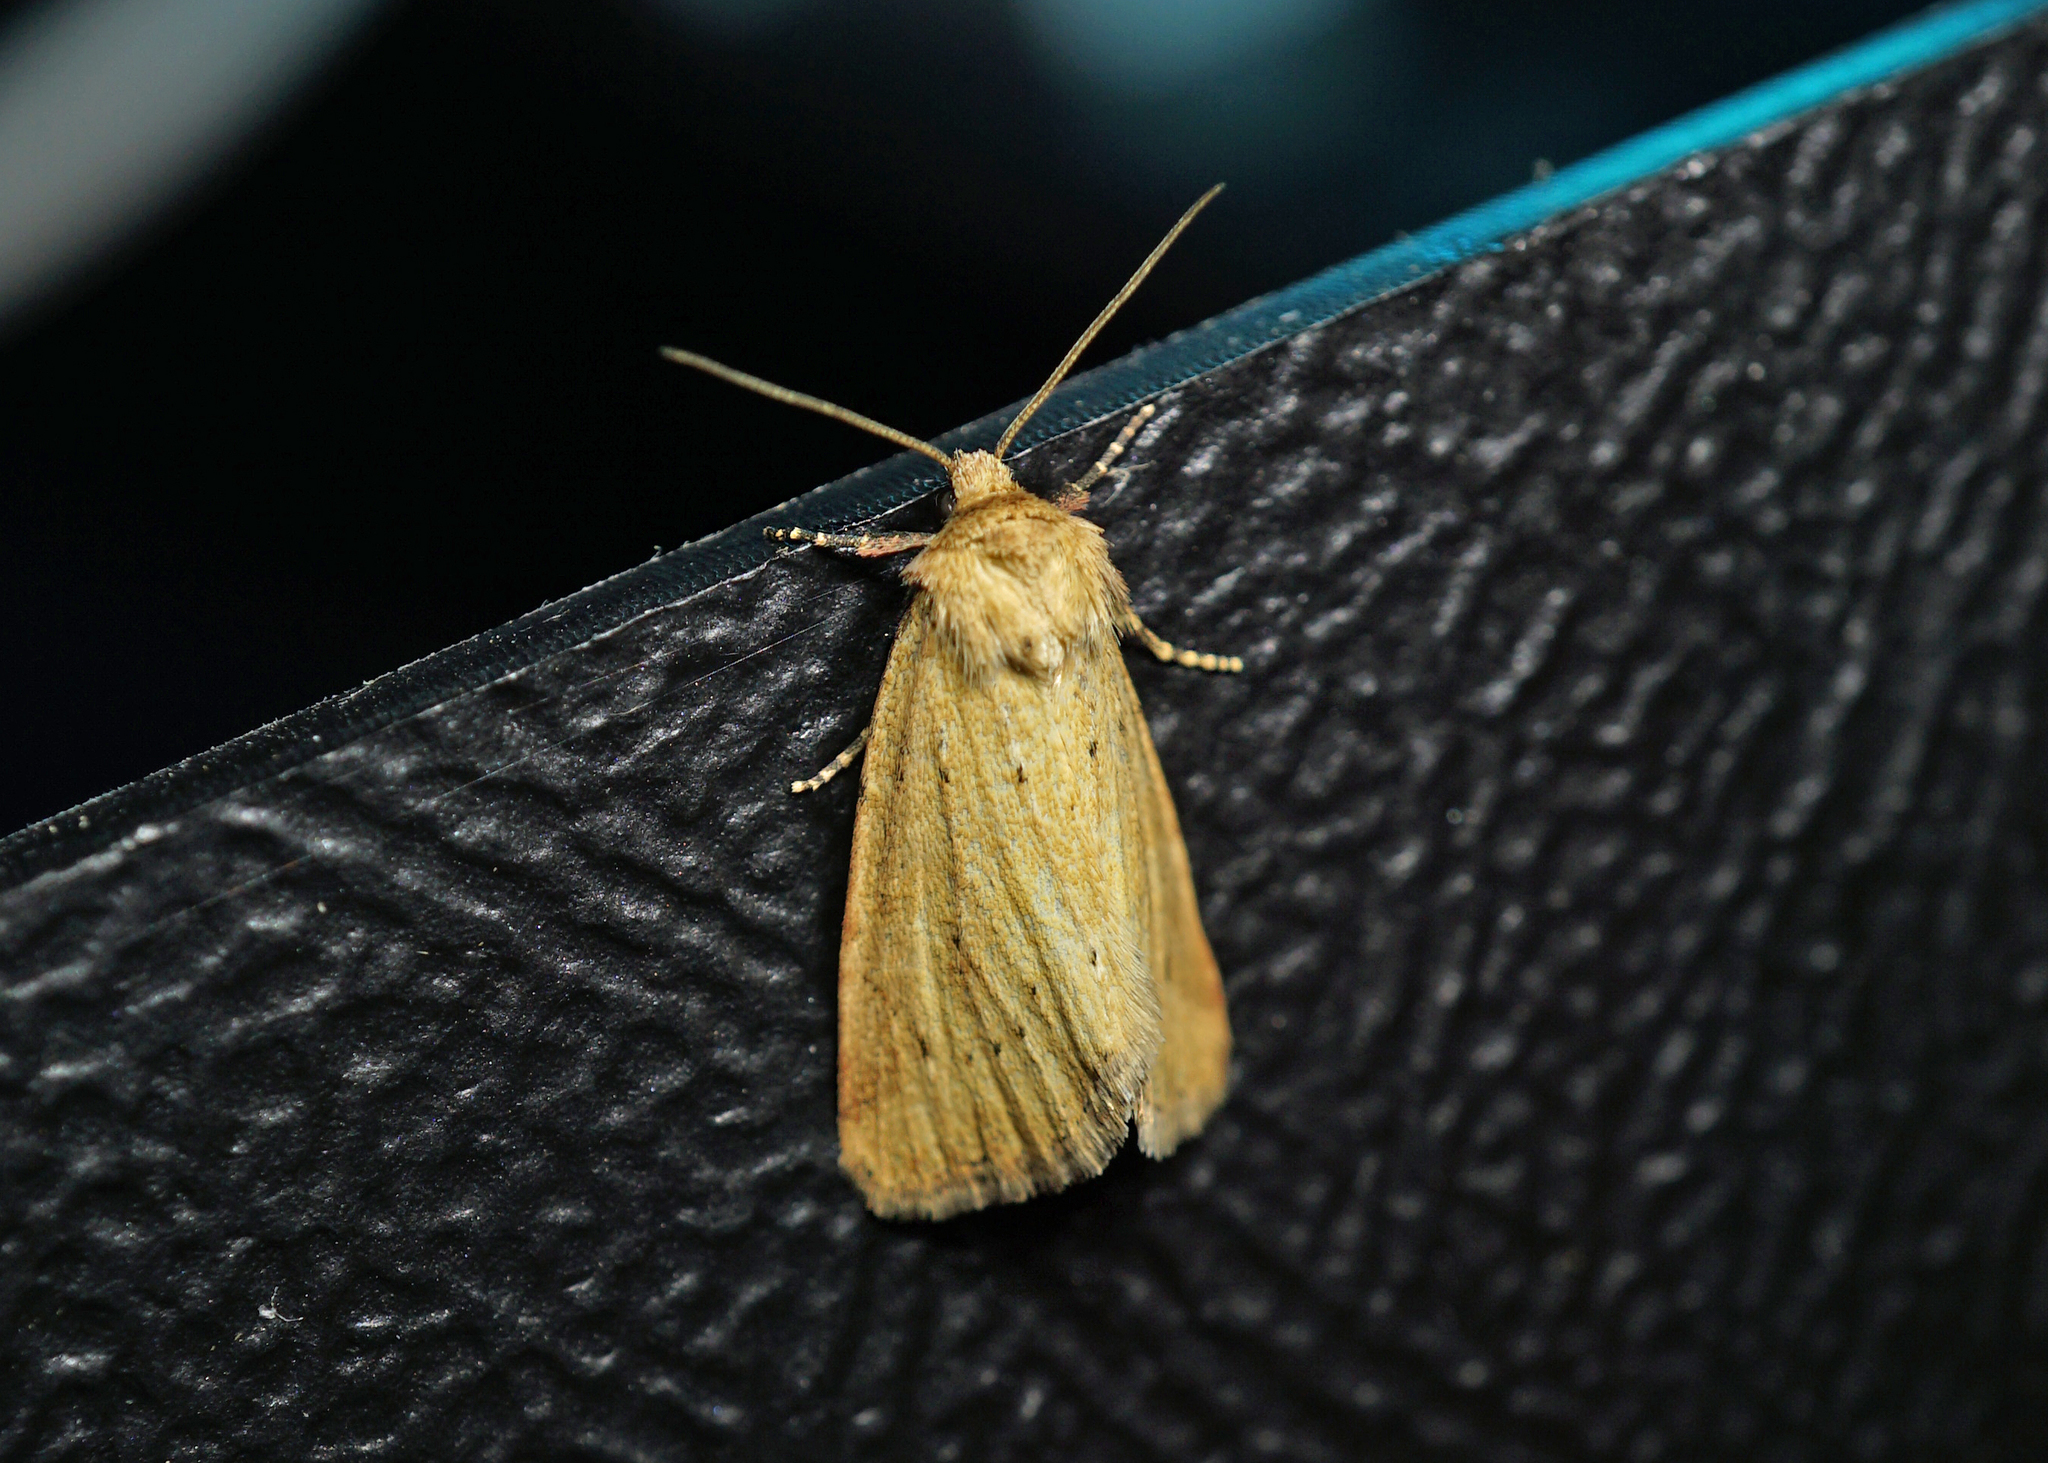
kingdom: Animalia
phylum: Arthropoda
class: Insecta
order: Lepidoptera
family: Noctuidae
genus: Photedes
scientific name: Photedes minima
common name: Small dotted buff
